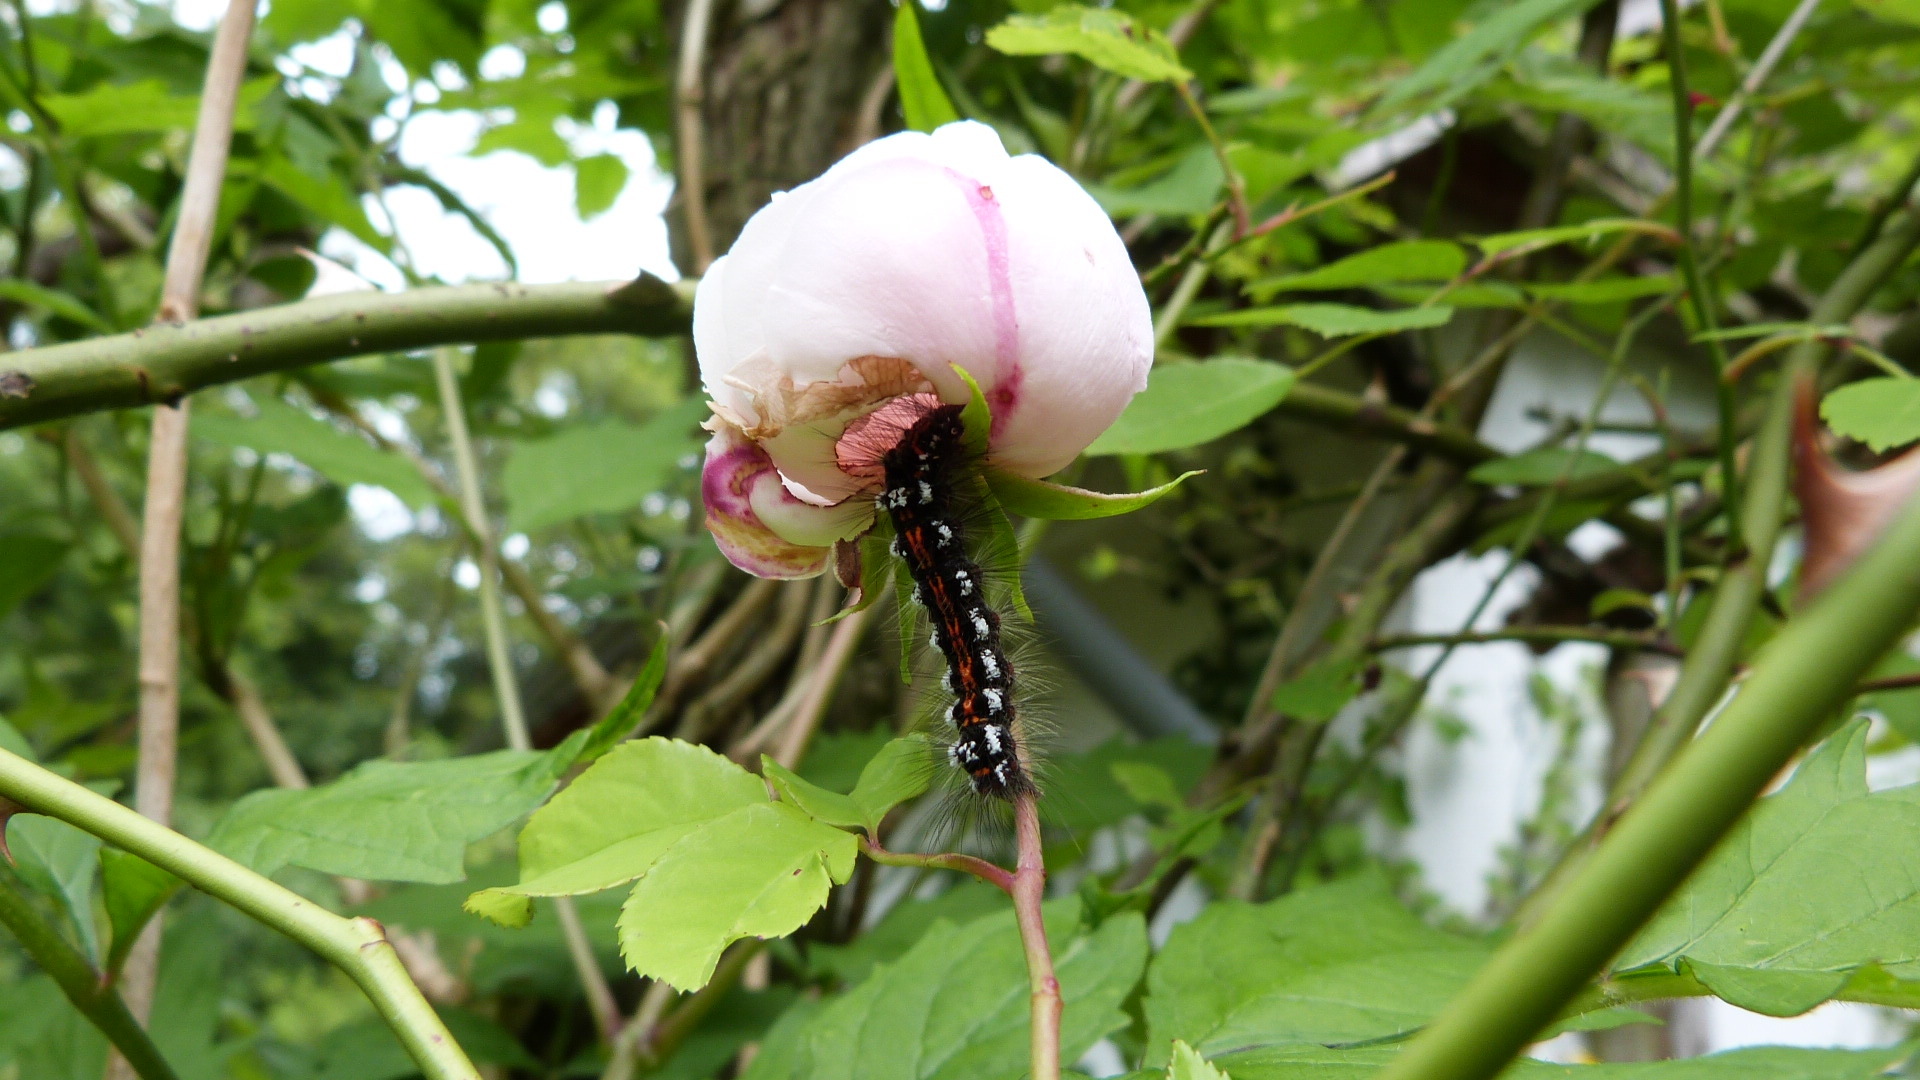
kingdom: Animalia
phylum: Arthropoda
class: Insecta
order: Lepidoptera
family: Erebidae
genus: Sphrageidus
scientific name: Sphrageidus similis
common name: Yellow-tail
